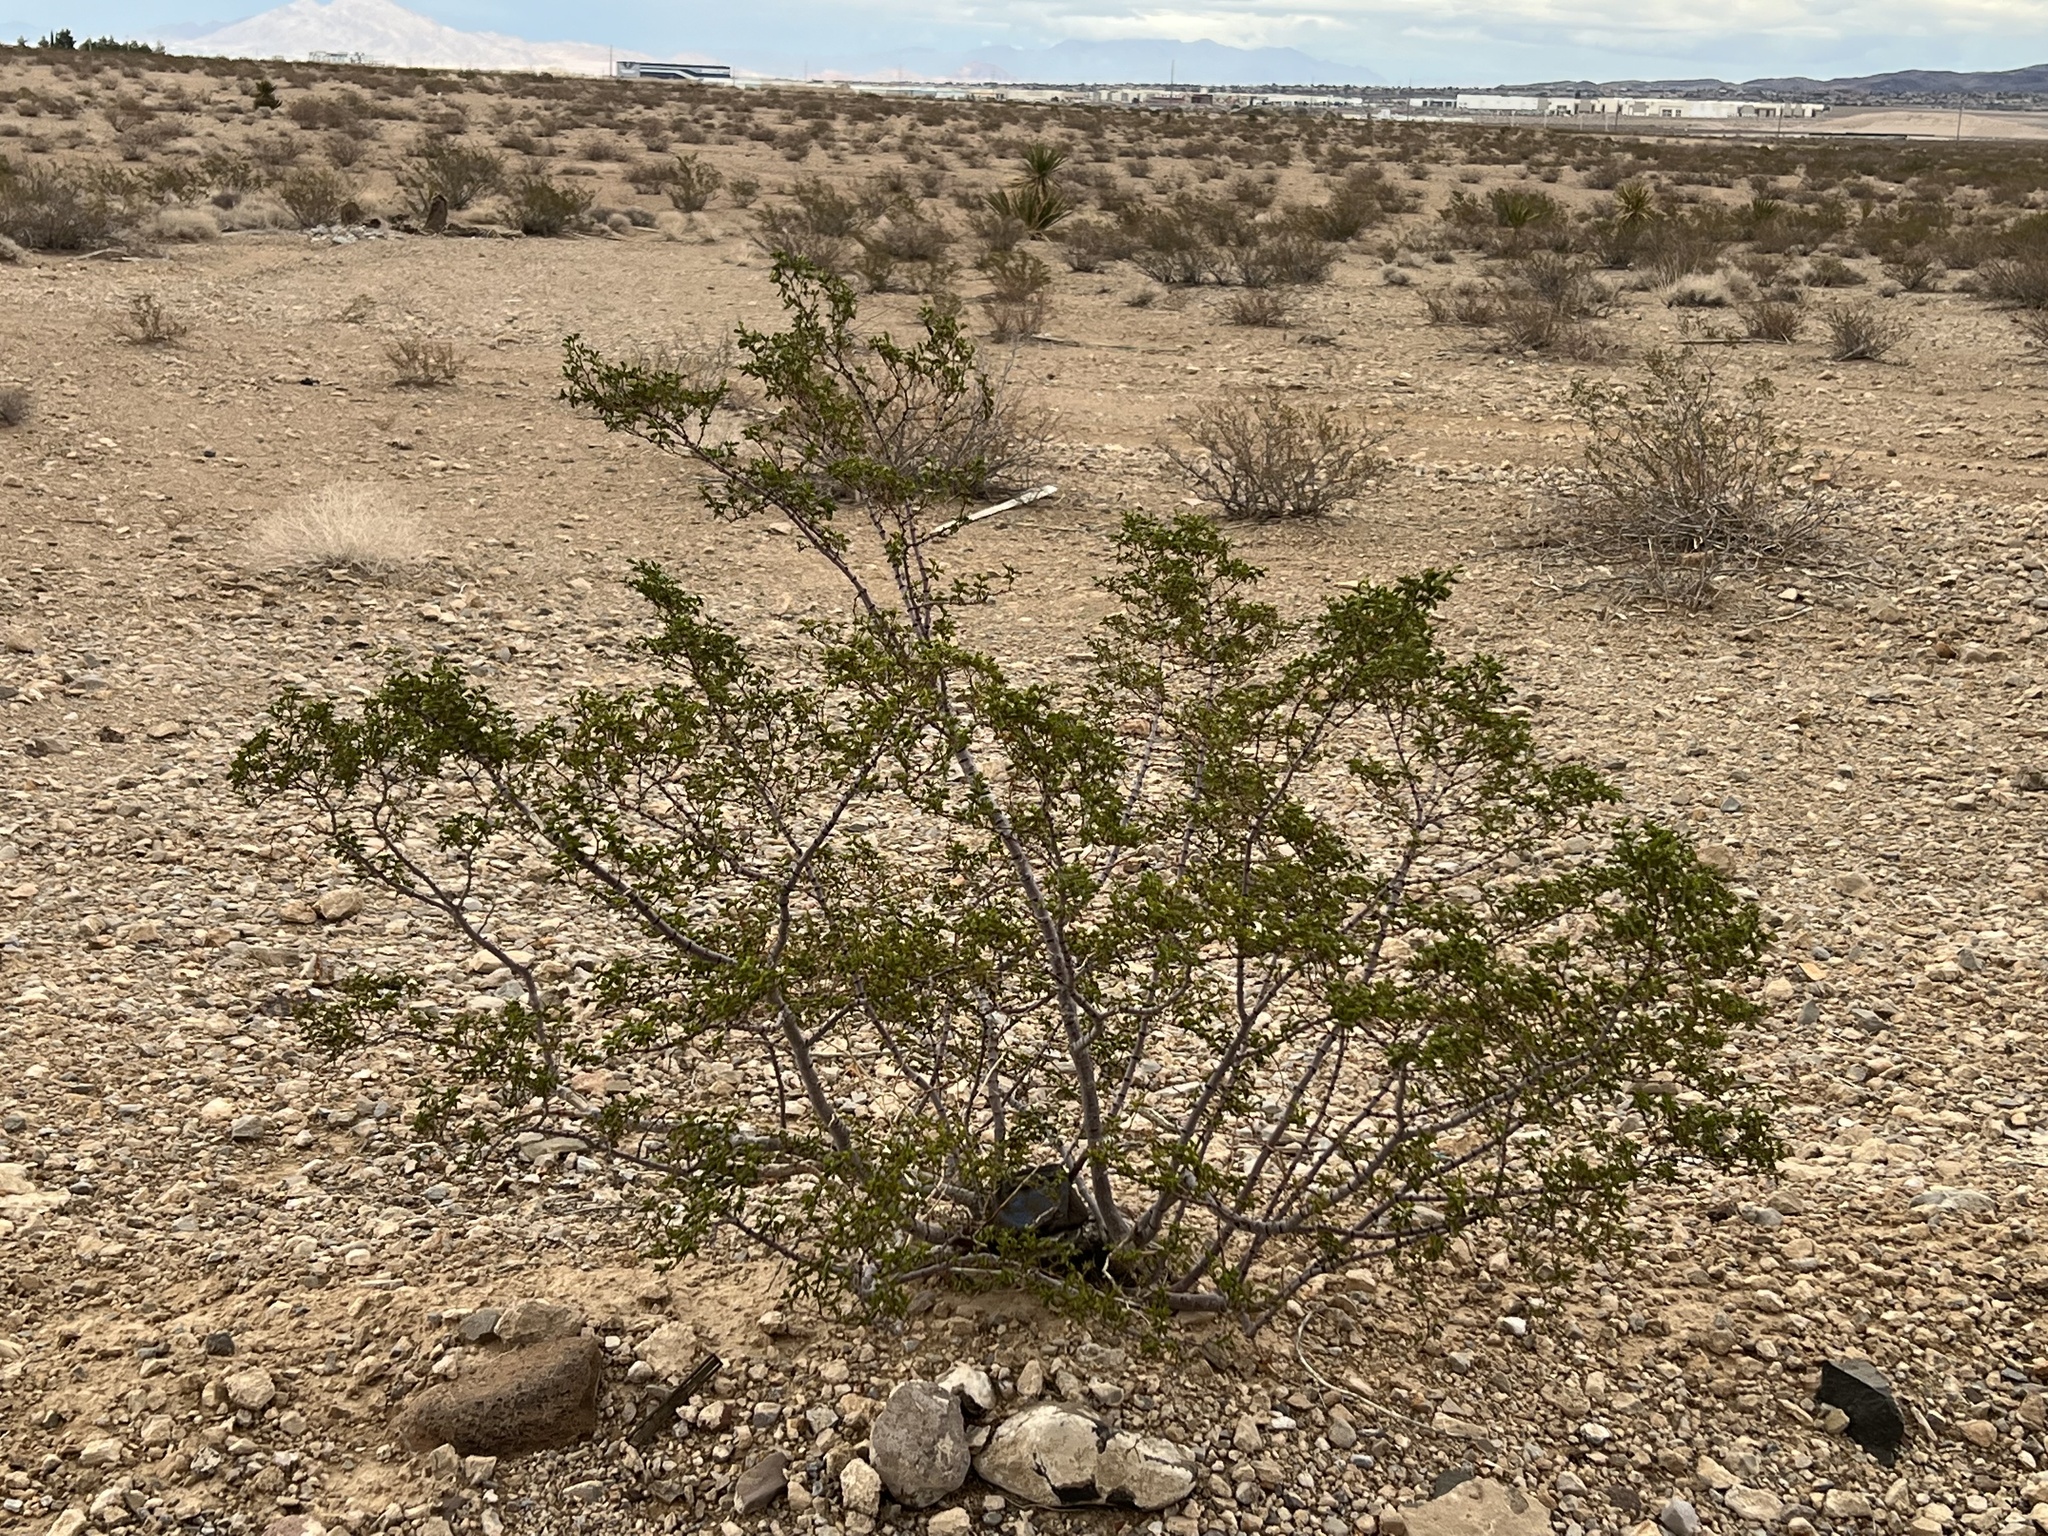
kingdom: Plantae
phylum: Tracheophyta
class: Magnoliopsida
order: Zygophyllales
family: Zygophyllaceae
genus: Larrea
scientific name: Larrea tridentata
